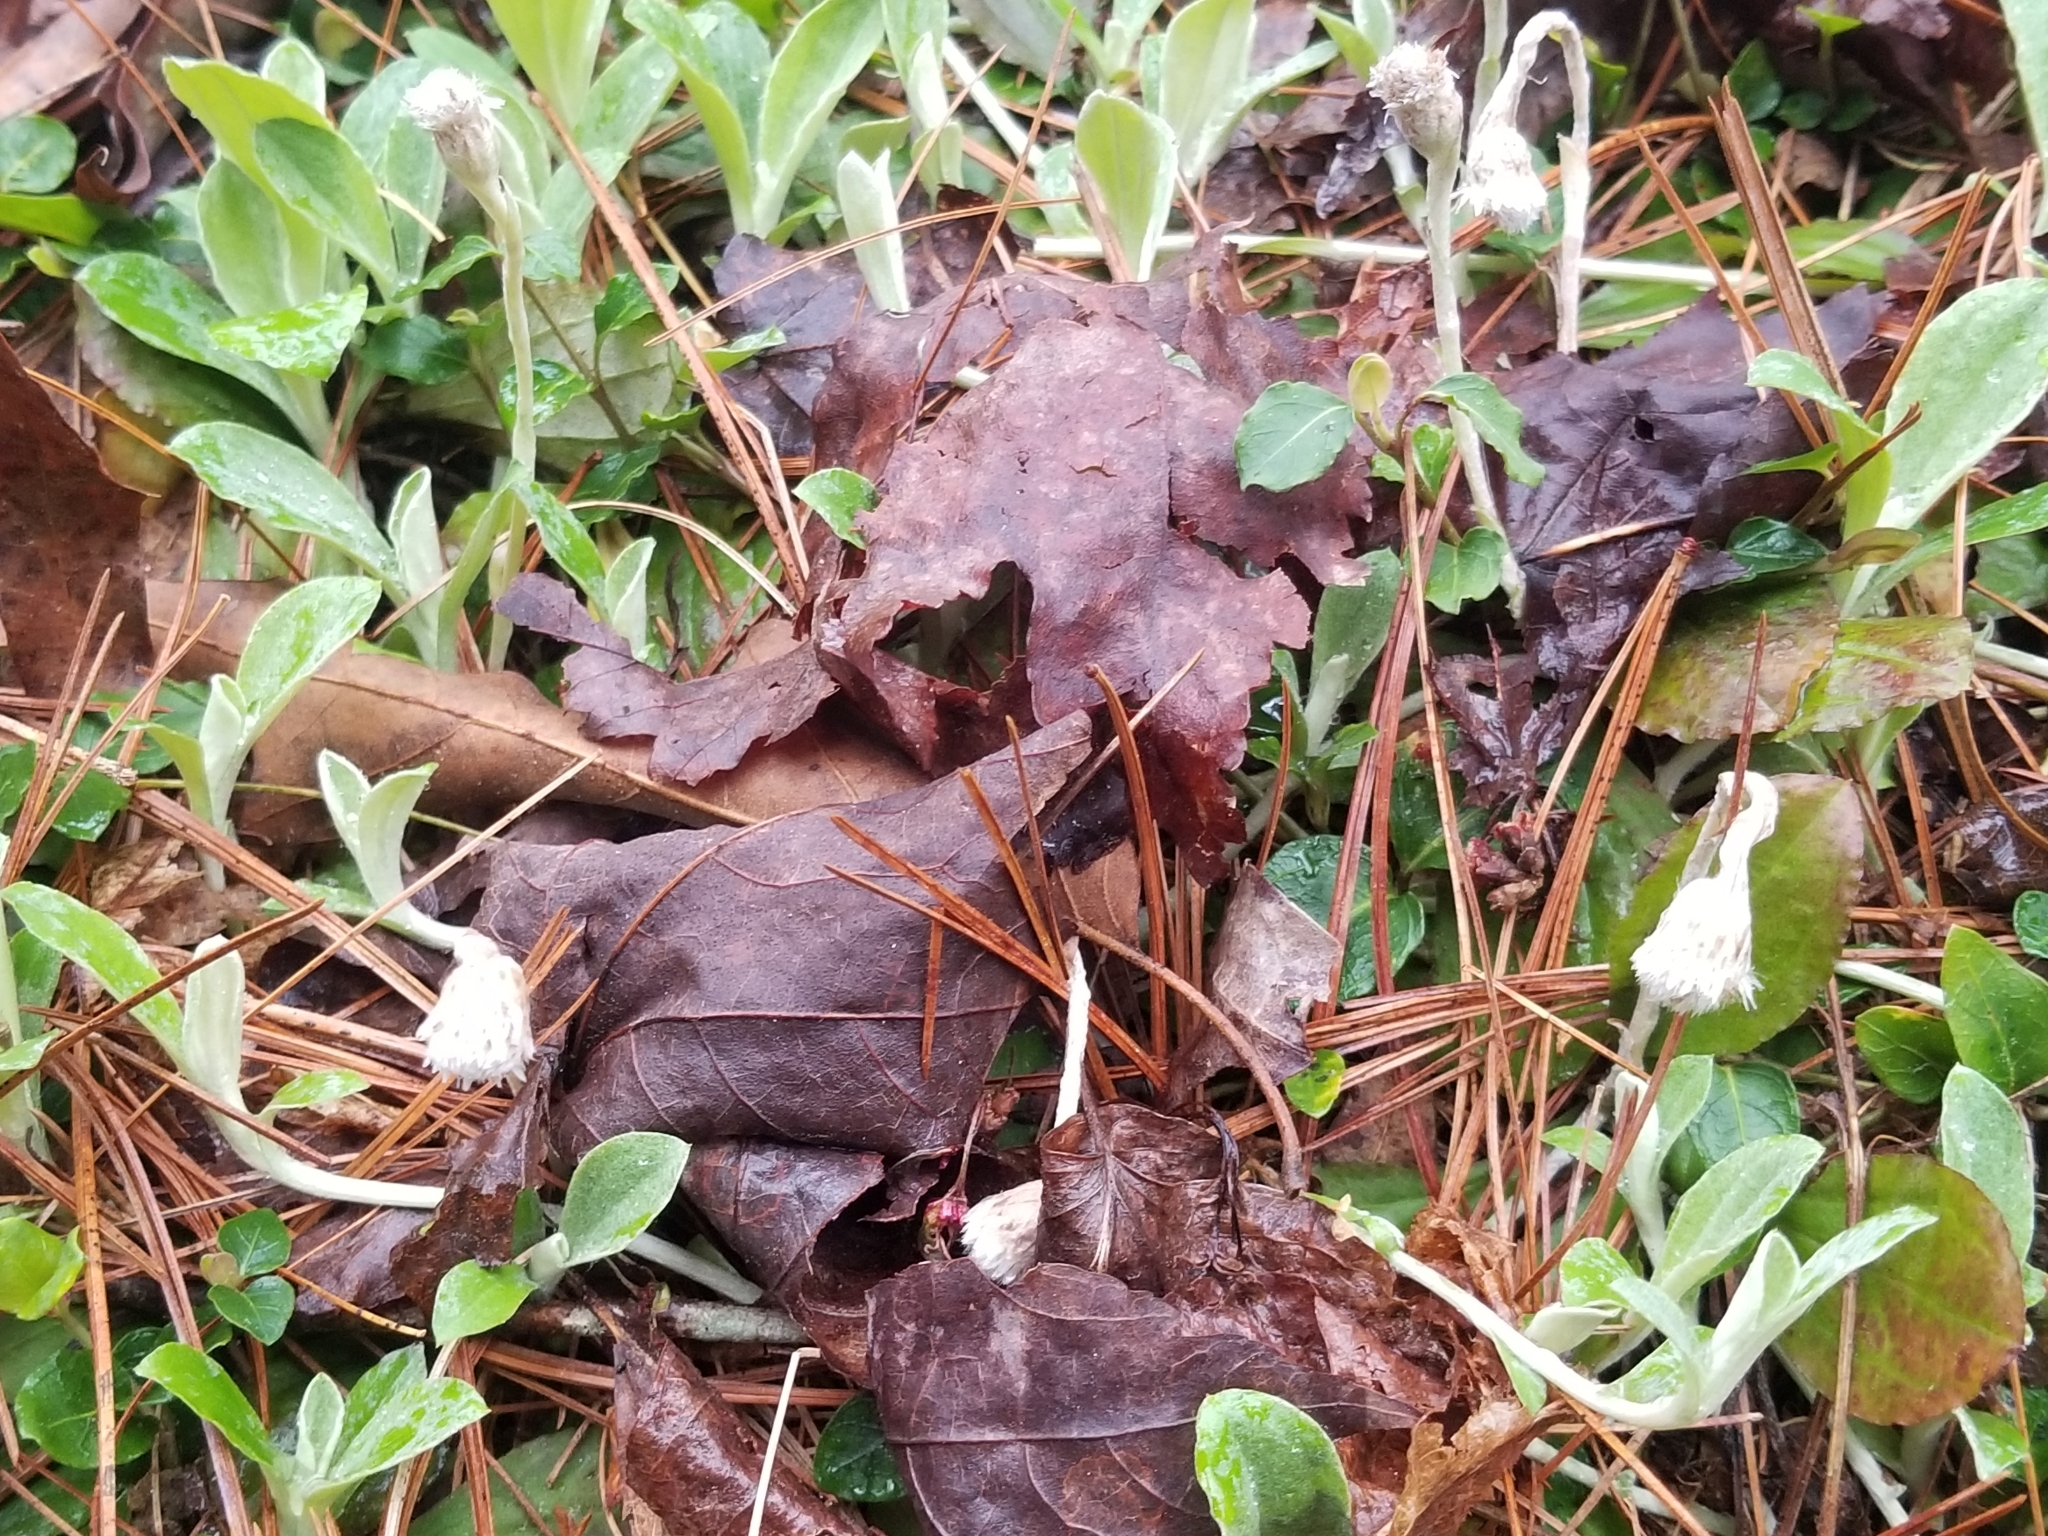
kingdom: Plantae
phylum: Tracheophyta
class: Magnoliopsida
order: Asterales
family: Asteraceae
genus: Antennaria
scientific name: Antennaria solitaria
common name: Single-head pussytoes
